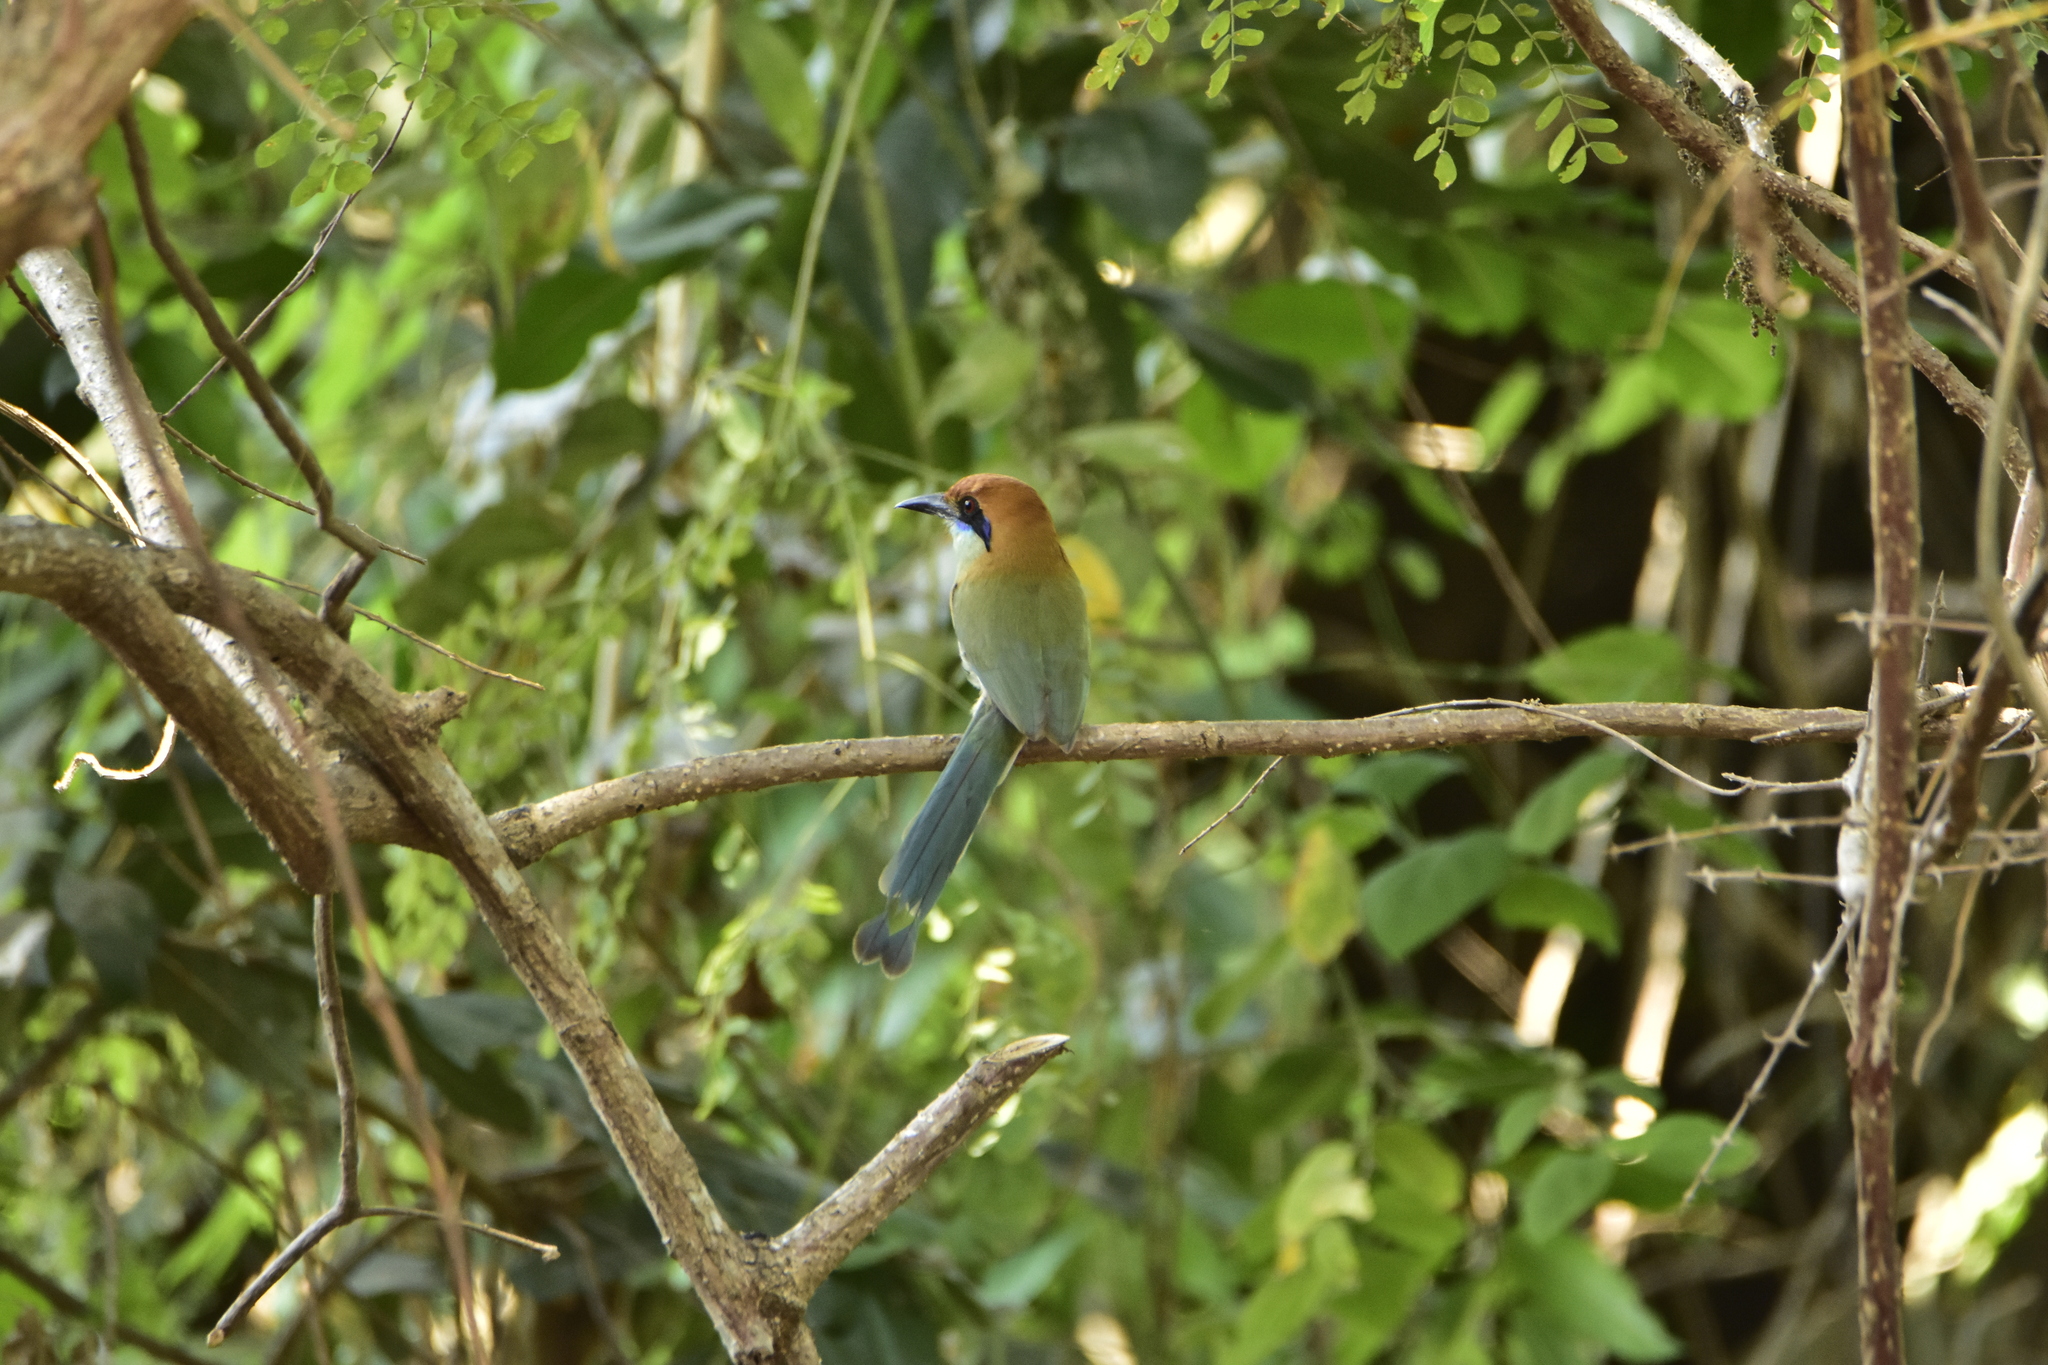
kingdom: Animalia
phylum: Chordata
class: Aves
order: Coraciiformes
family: Momotidae
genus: Momotus
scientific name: Momotus mexicanus
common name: Russet-crowned motmot
